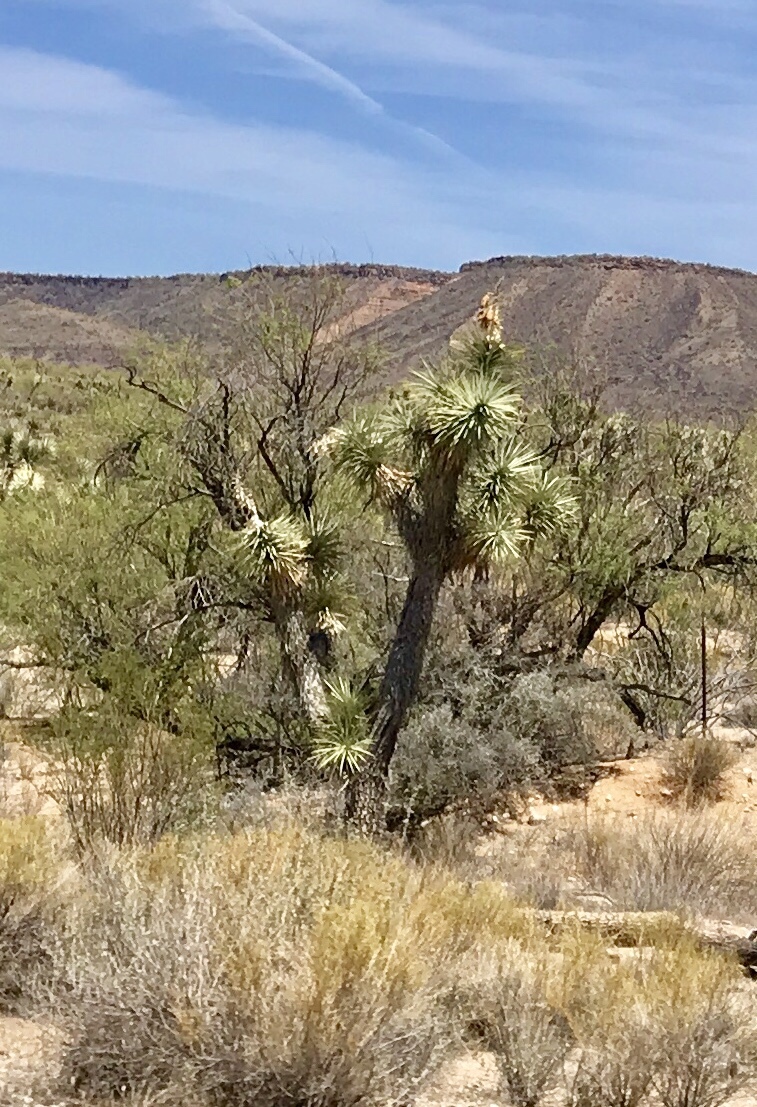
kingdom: Plantae
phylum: Tracheophyta
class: Liliopsida
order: Asparagales
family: Asparagaceae
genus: Yucca
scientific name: Yucca brevifolia
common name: Joshua tree
